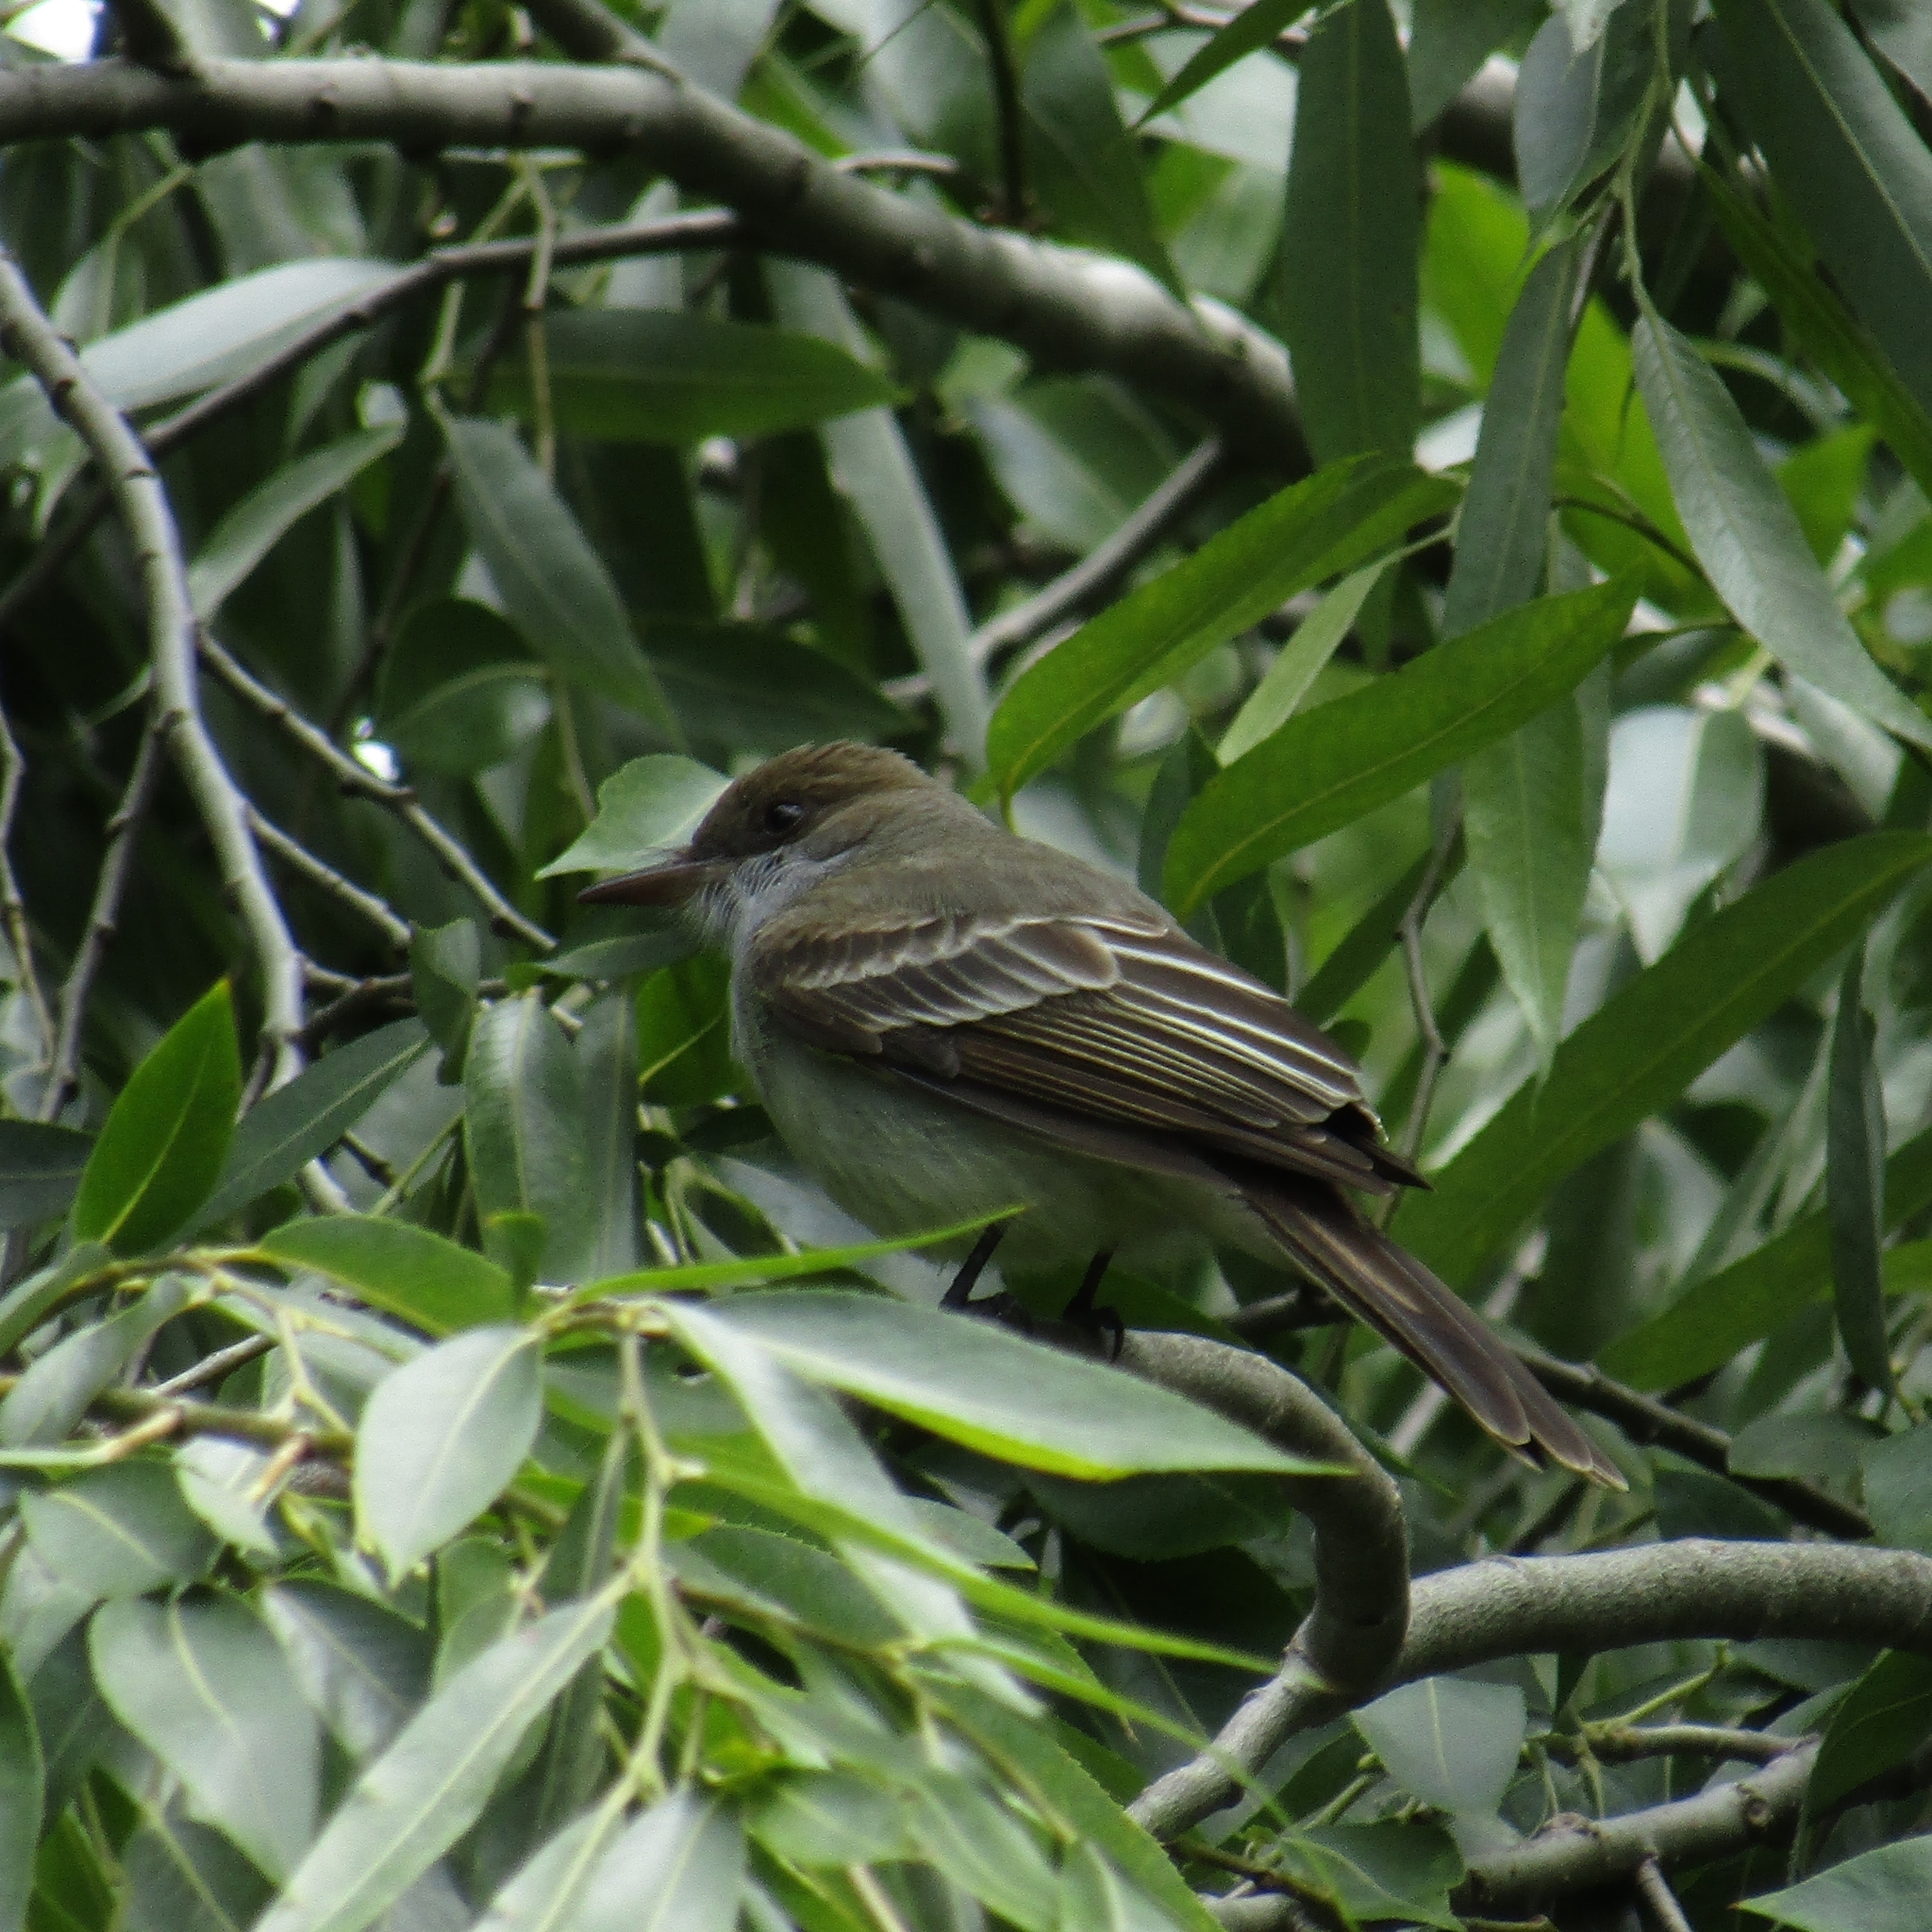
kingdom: Animalia
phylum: Chordata
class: Aves
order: Passeriformes
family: Tyrannidae
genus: Myiarchus
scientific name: Myiarchus swainsoni
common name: Swainson's flycatcher
